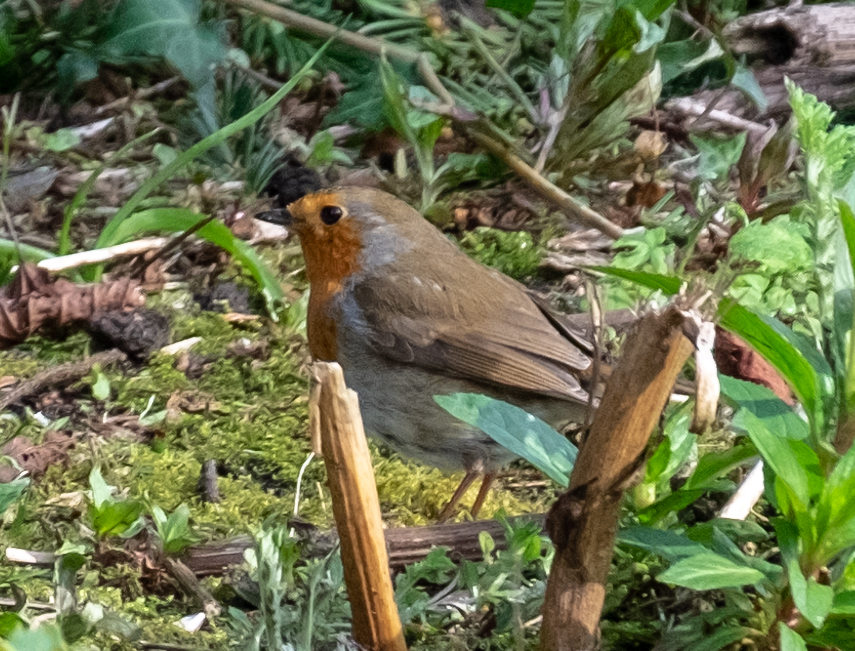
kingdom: Animalia
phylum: Chordata
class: Aves
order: Passeriformes
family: Muscicapidae
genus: Erithacus
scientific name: Erithacus rubecula
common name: European robin
